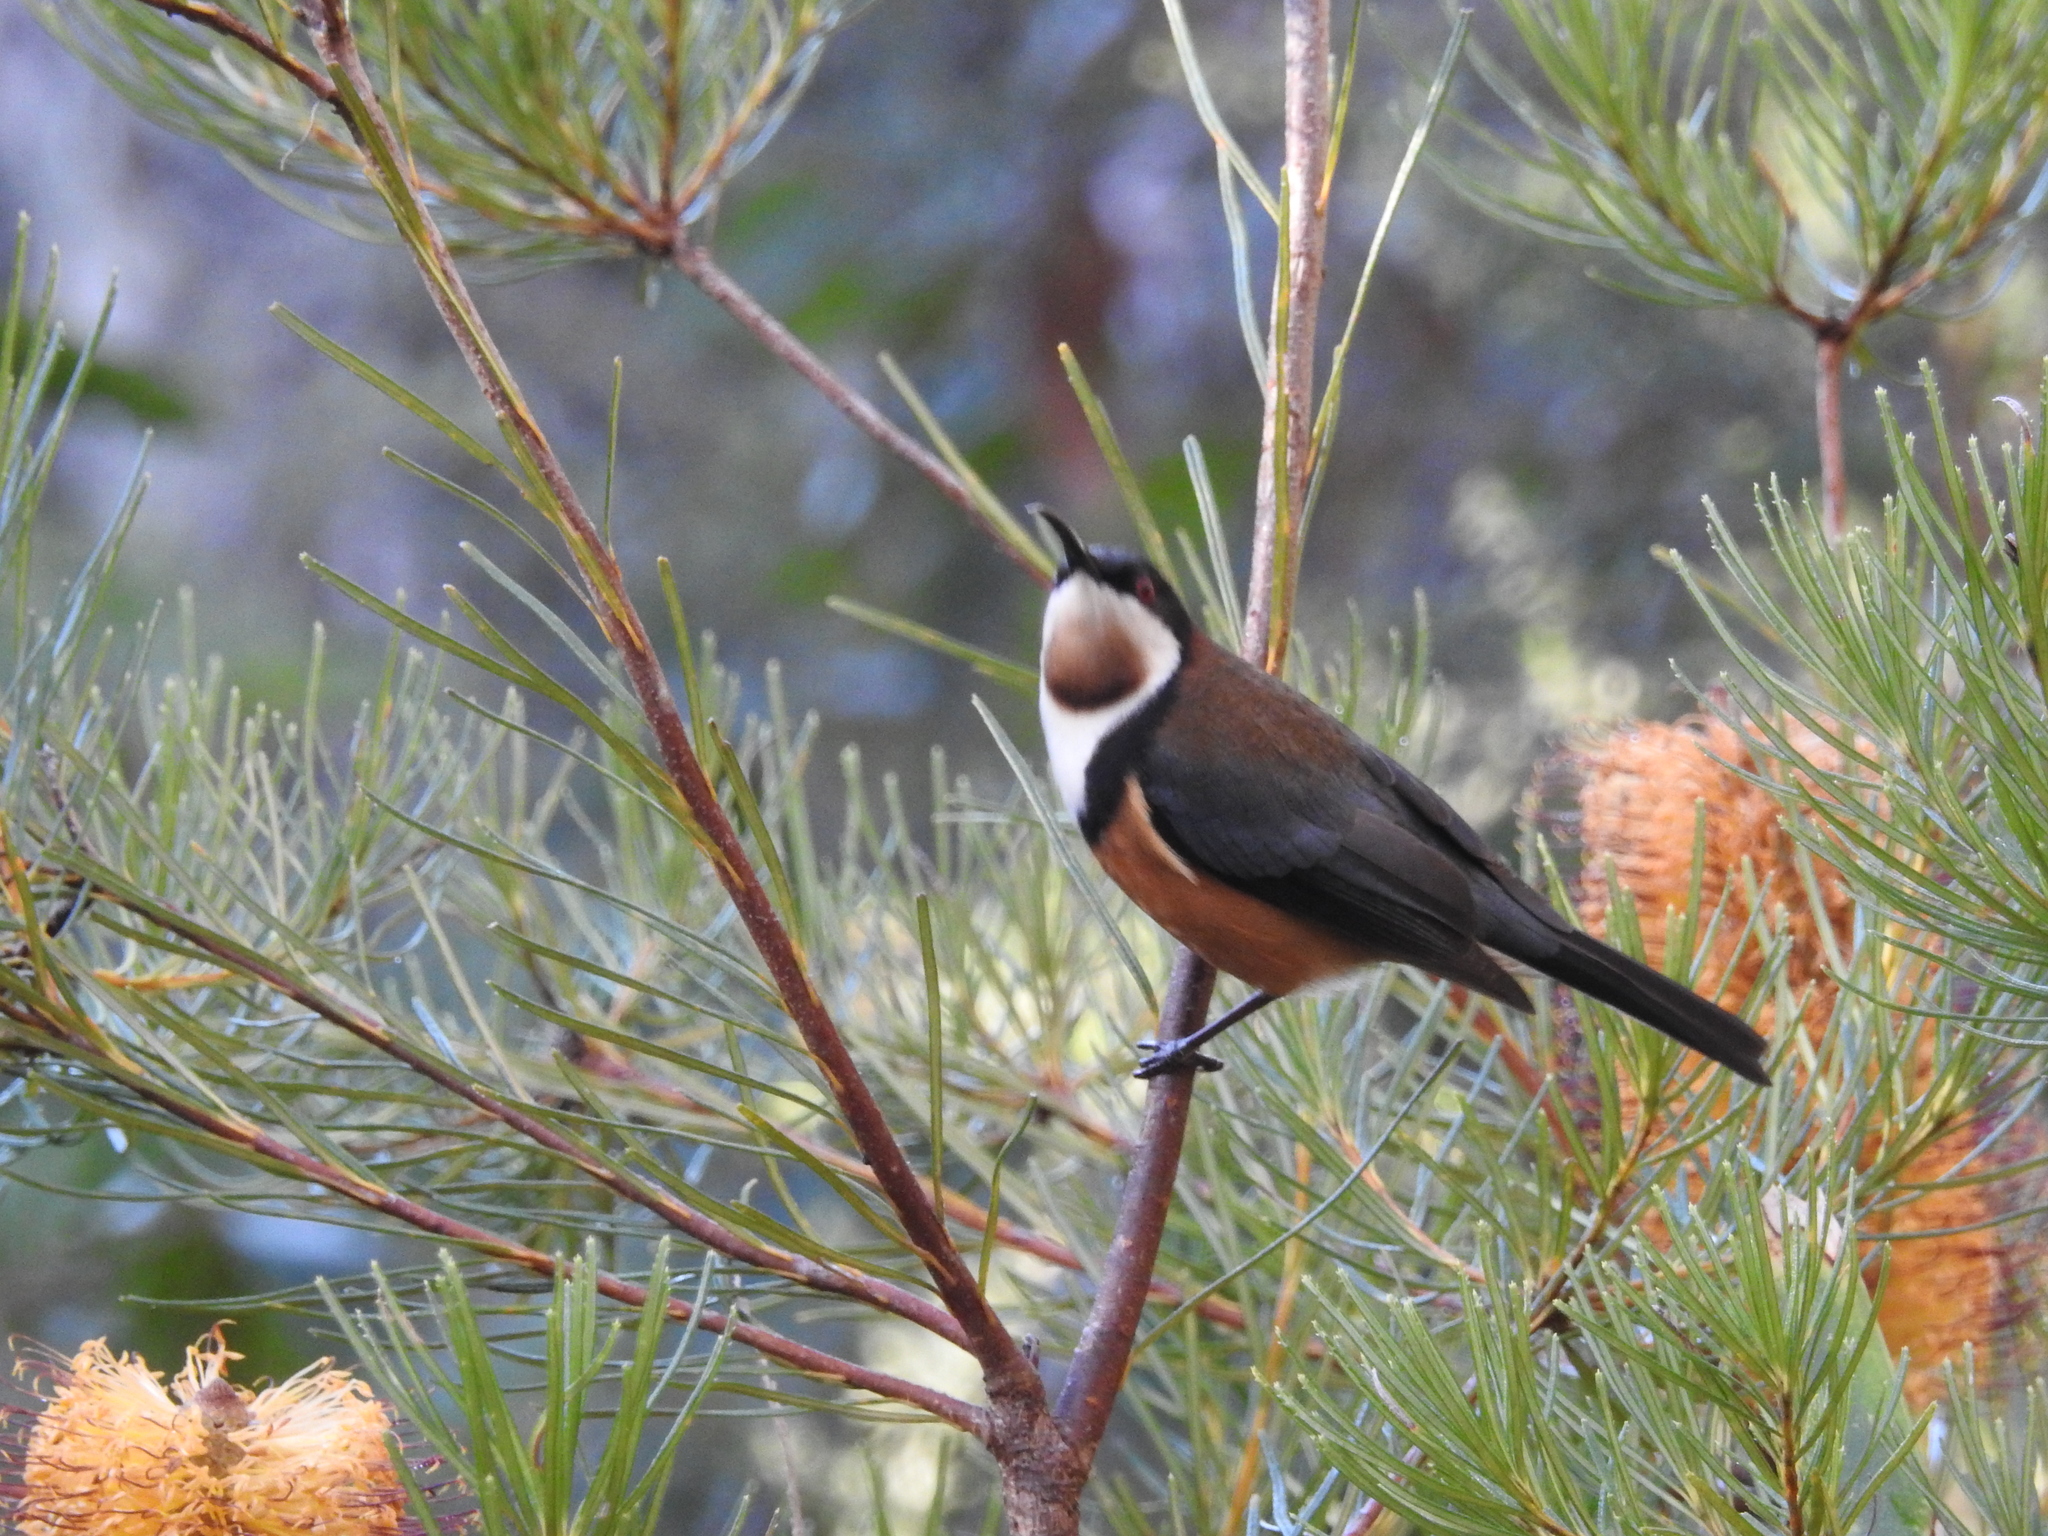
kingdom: Animalia
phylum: Chordata
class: Aves
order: Passeriformes
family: Meliphagidae
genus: Acanthorhynchus
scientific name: Acanthorhynchus tenuirostris
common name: Eastern spinebill
